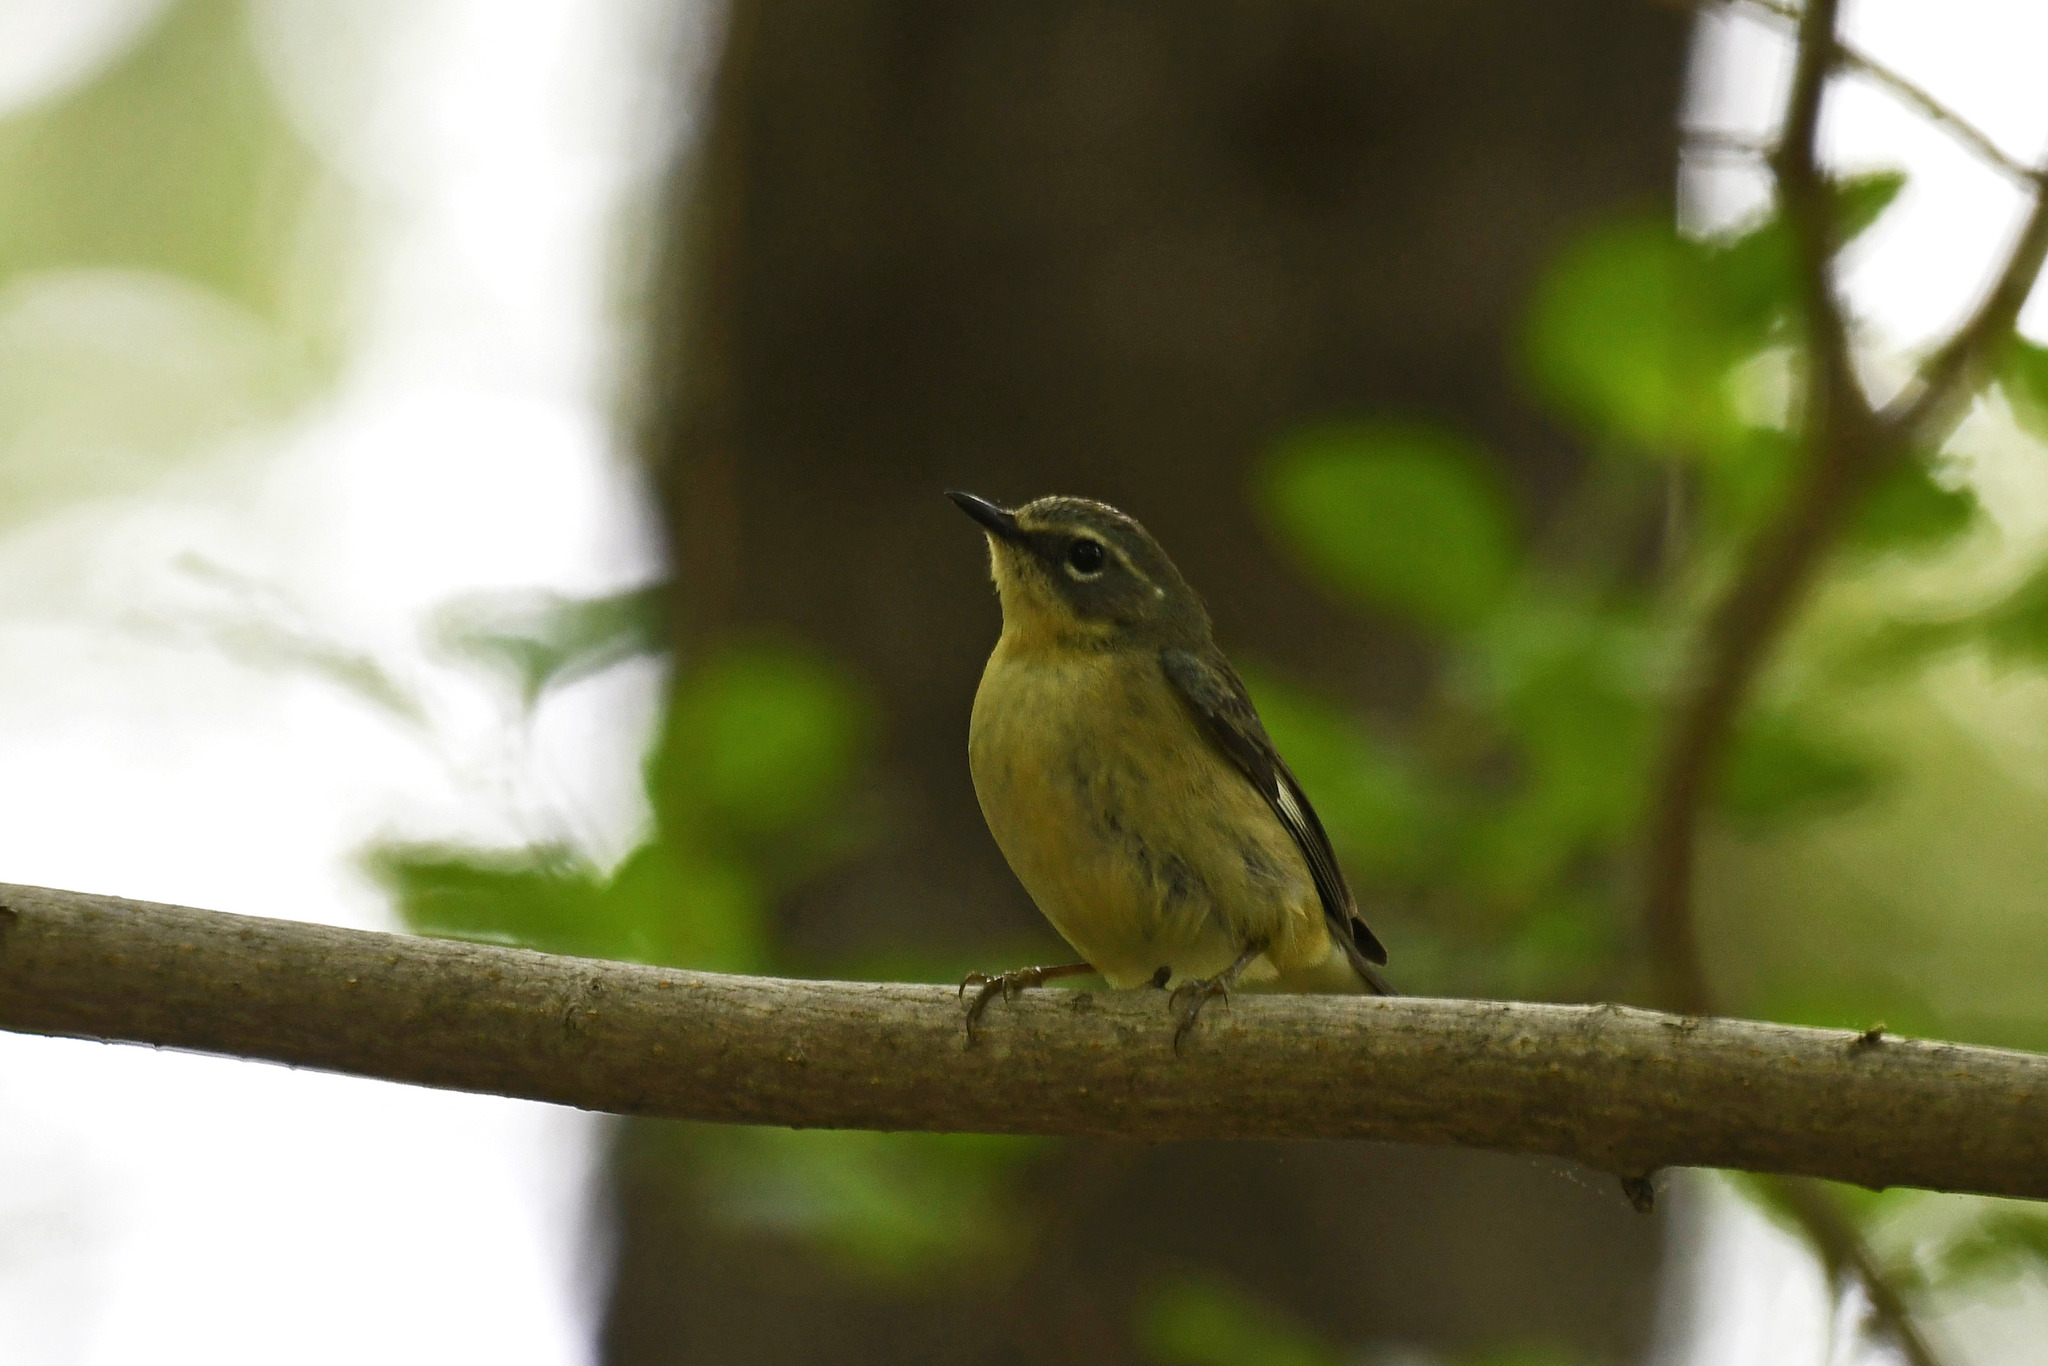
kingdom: Animalia
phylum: Chordata
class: Aves
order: Passeriformes
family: Parulidae
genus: Setophaga
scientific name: Setophaga caerulescens
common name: Black-throated blue warbler
